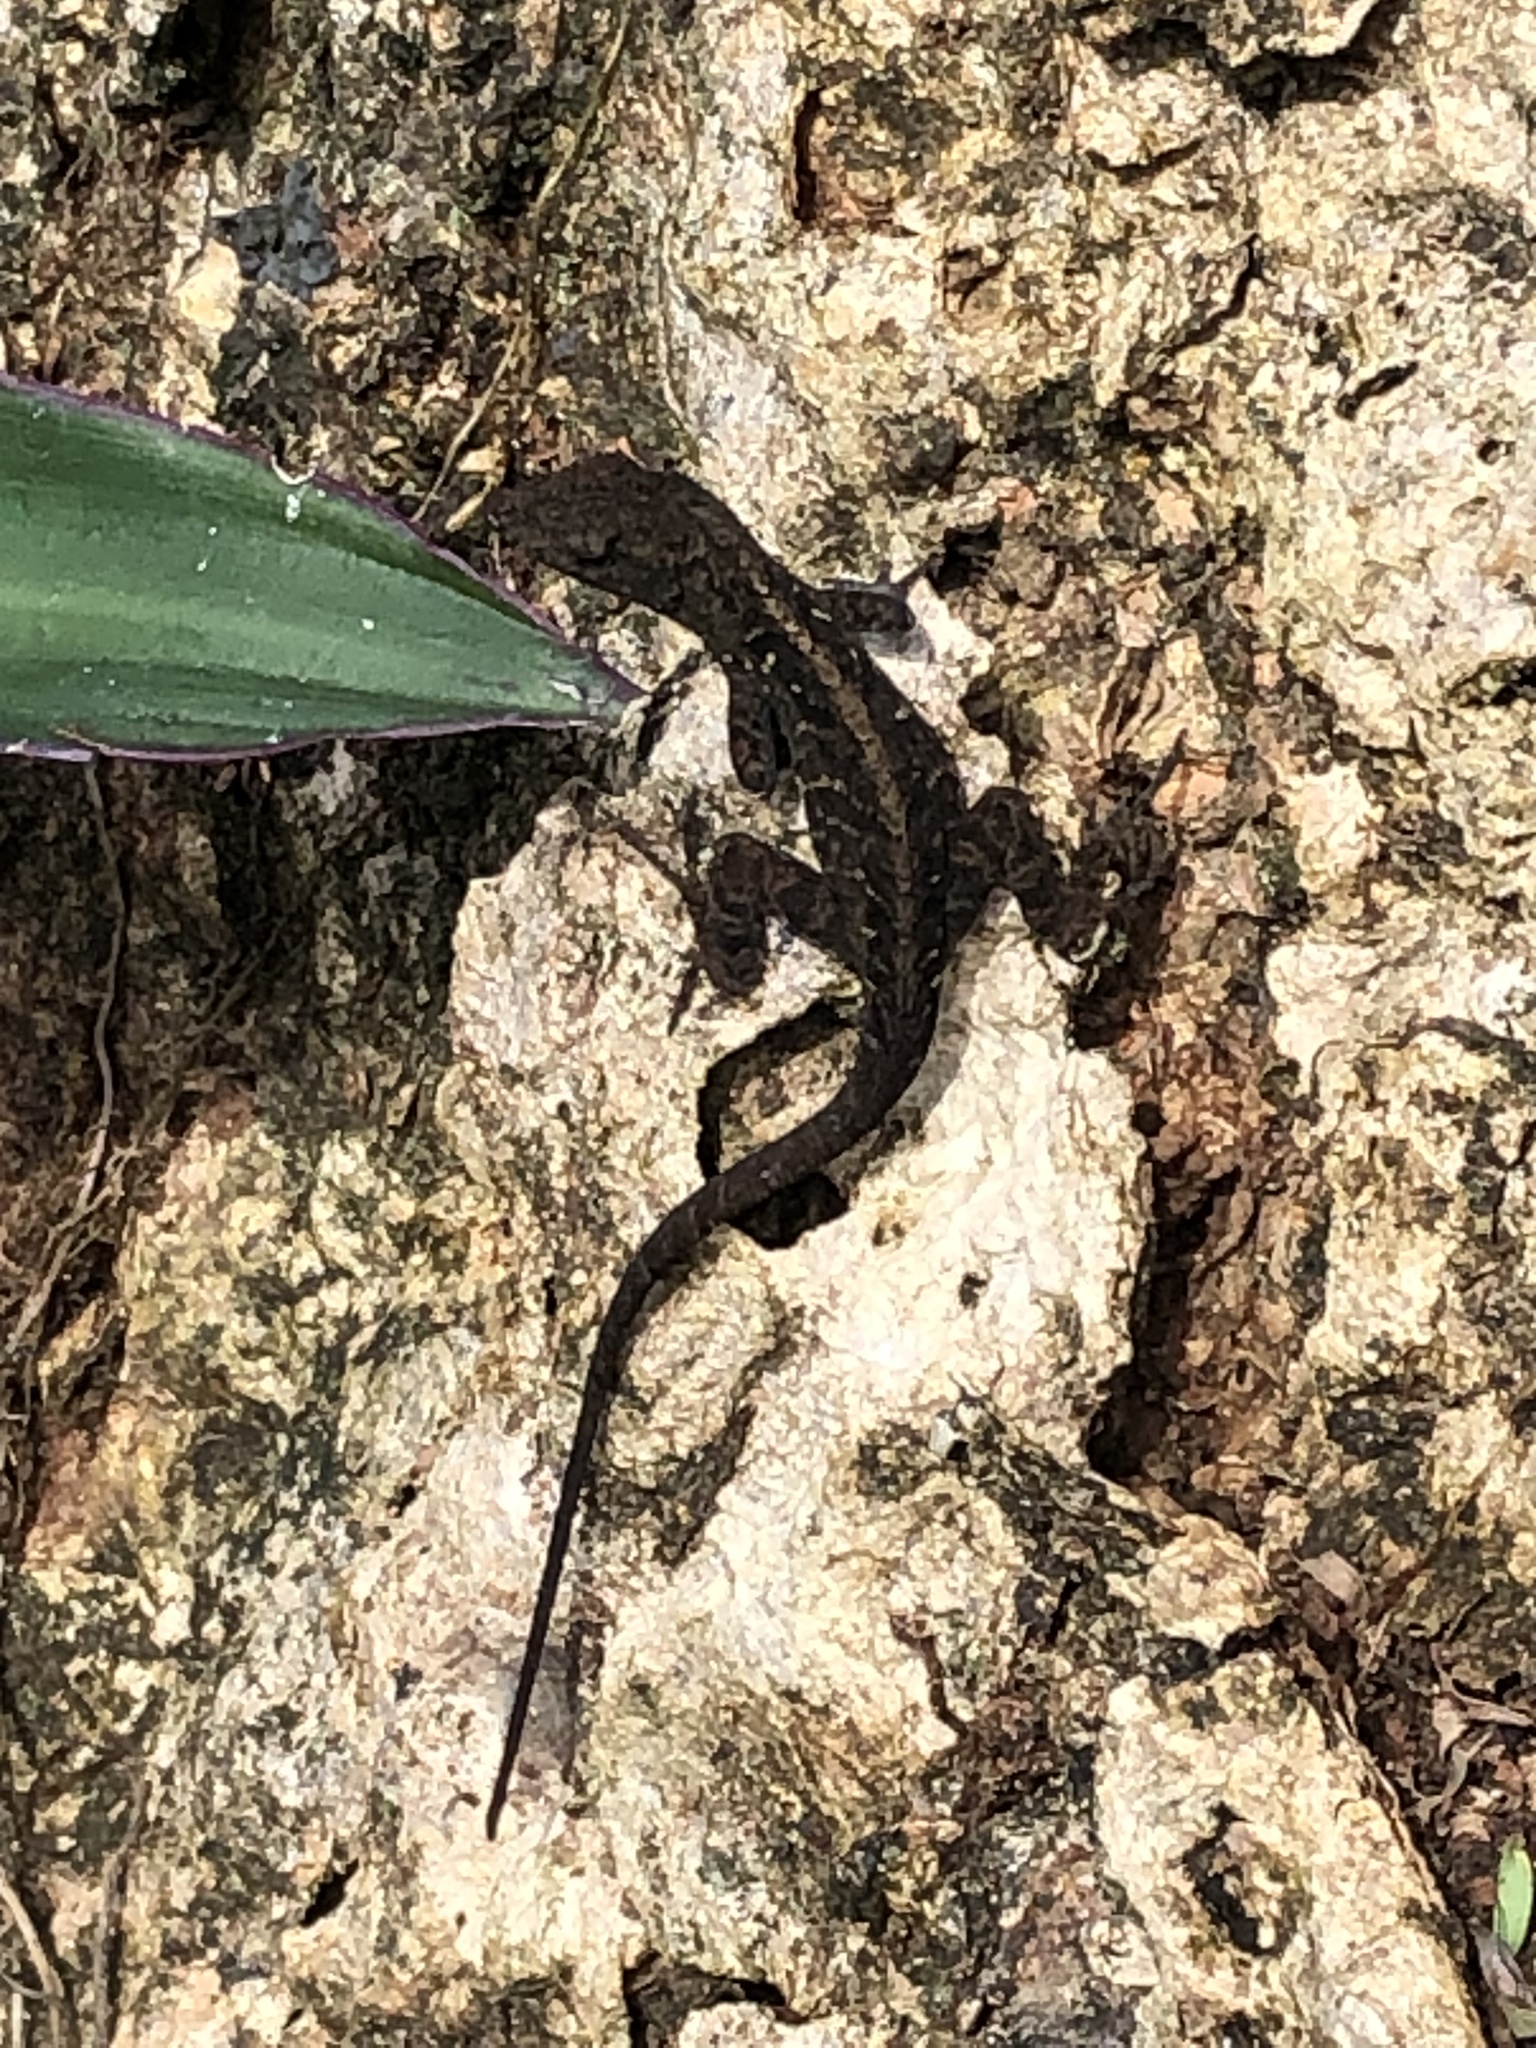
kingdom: Animalia
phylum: Chordata
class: Squamata
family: Dactyloidae
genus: Anolis
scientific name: Anolis sagrei
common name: Brown anole
